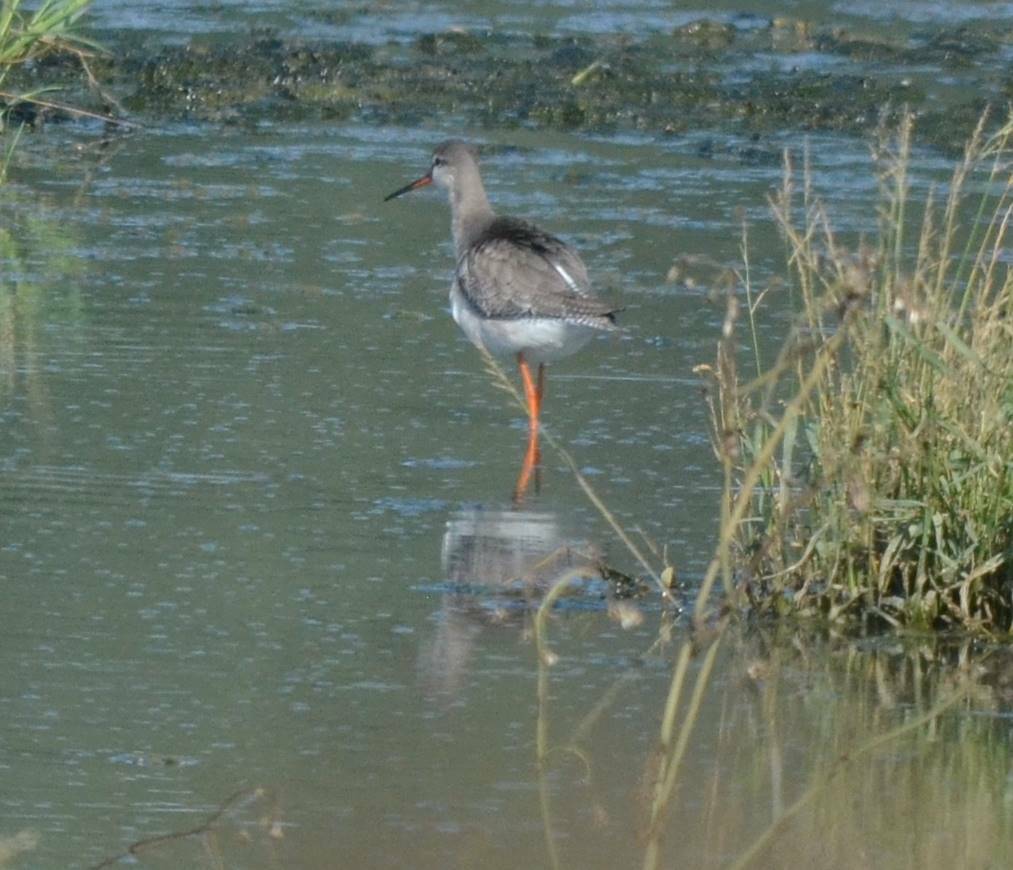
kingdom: Animalia
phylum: Chordata
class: Aves
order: Charadriiformes
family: Scolopacidae
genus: Tringa
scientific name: Tringa erythropus
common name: Spotted redshank
